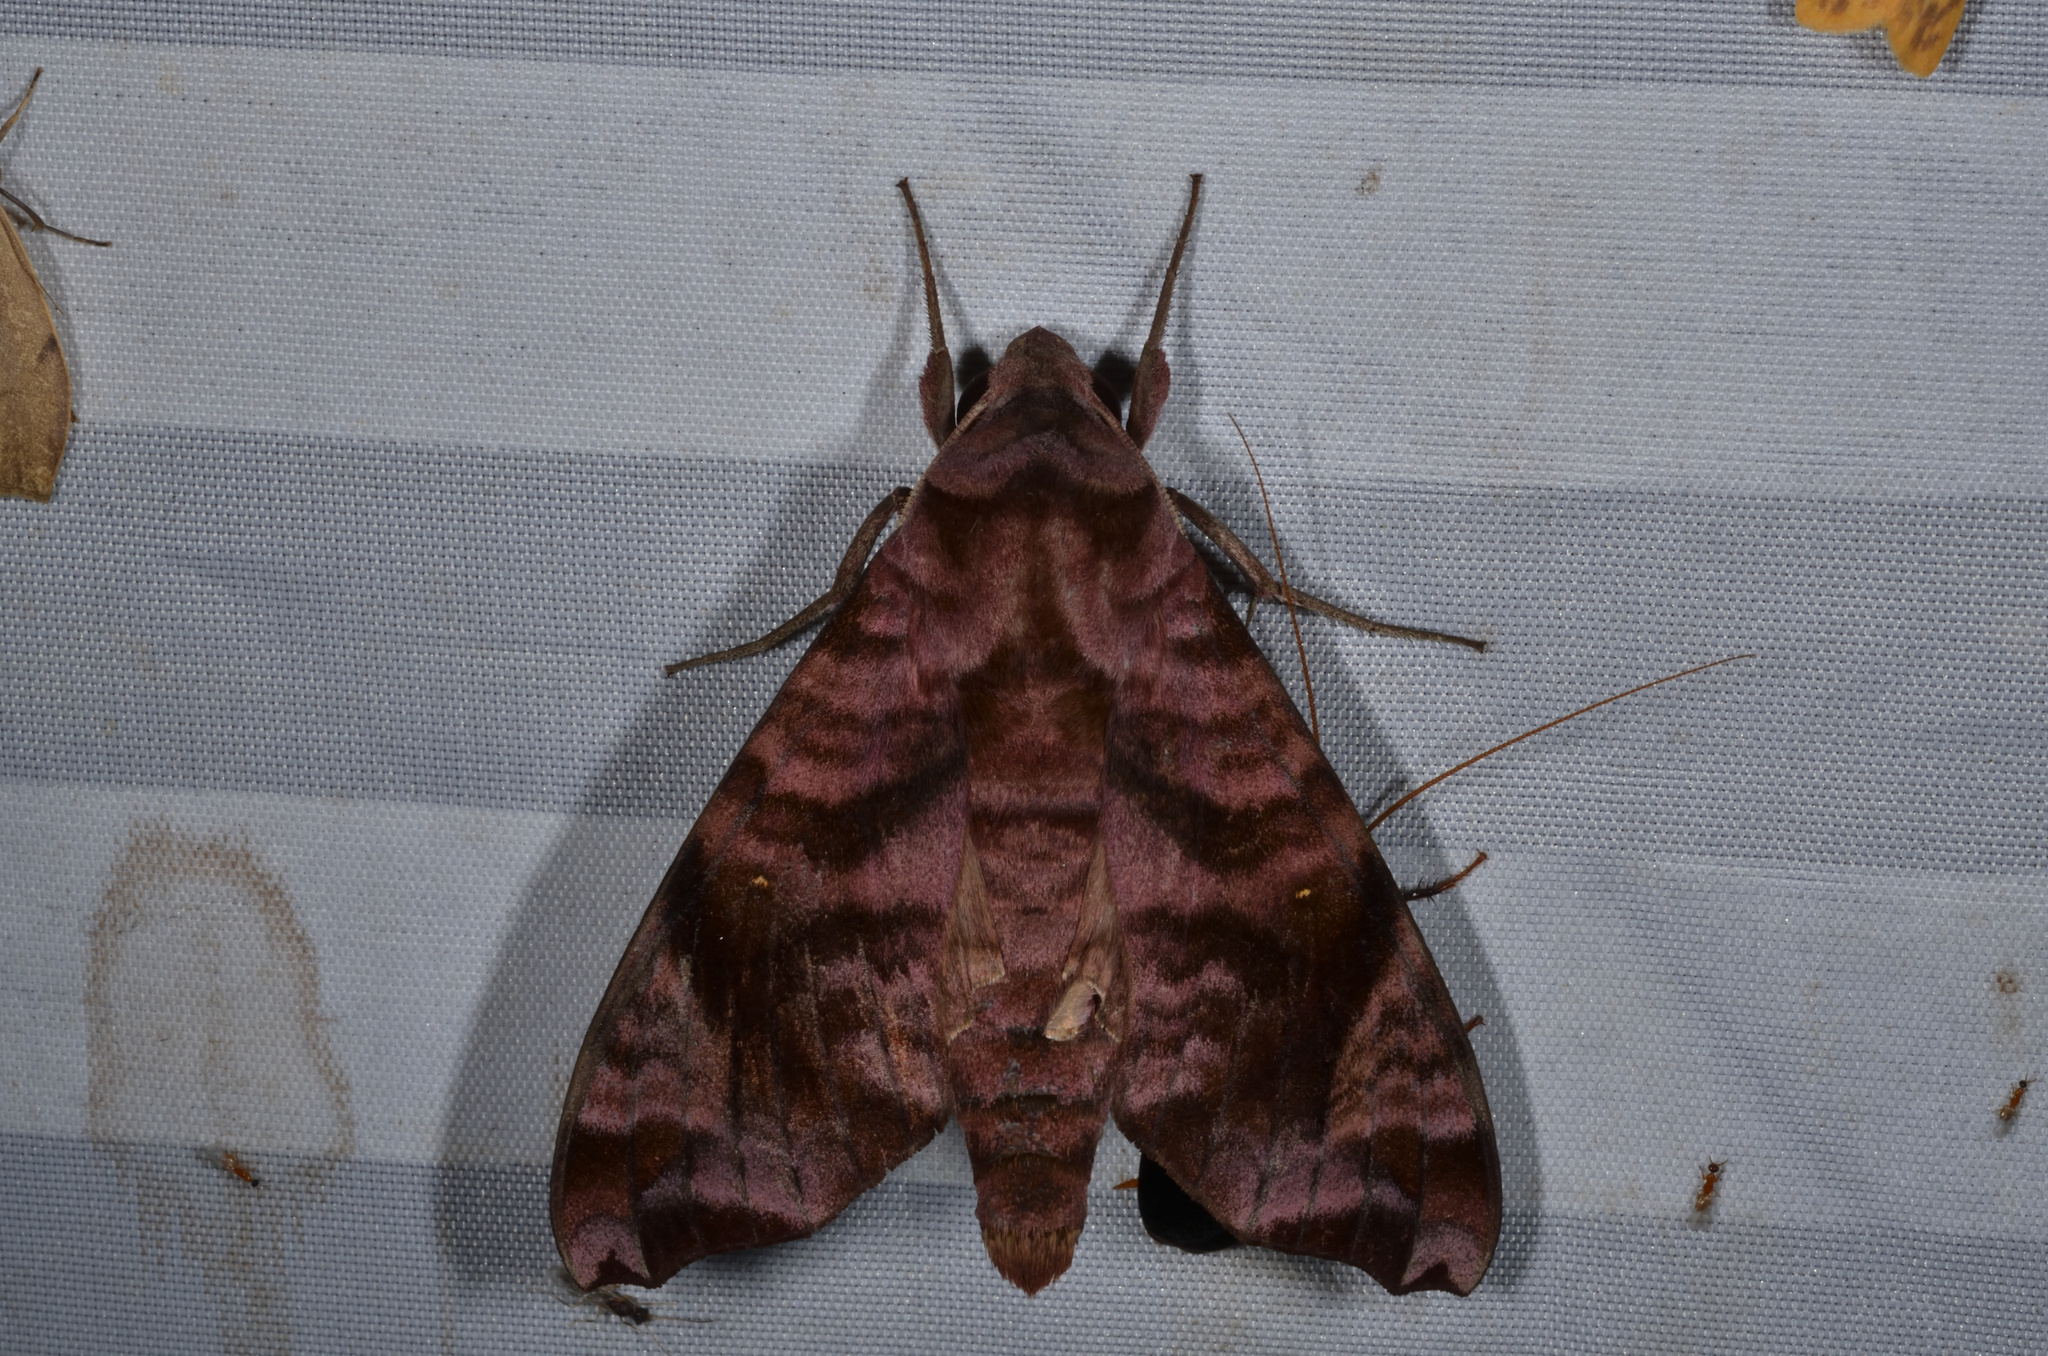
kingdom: Animalia
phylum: Arthropoda
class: Insecta
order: Lepidoptera
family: Sphingidae
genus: Acosmeryx
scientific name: Acosmeryx anceus
